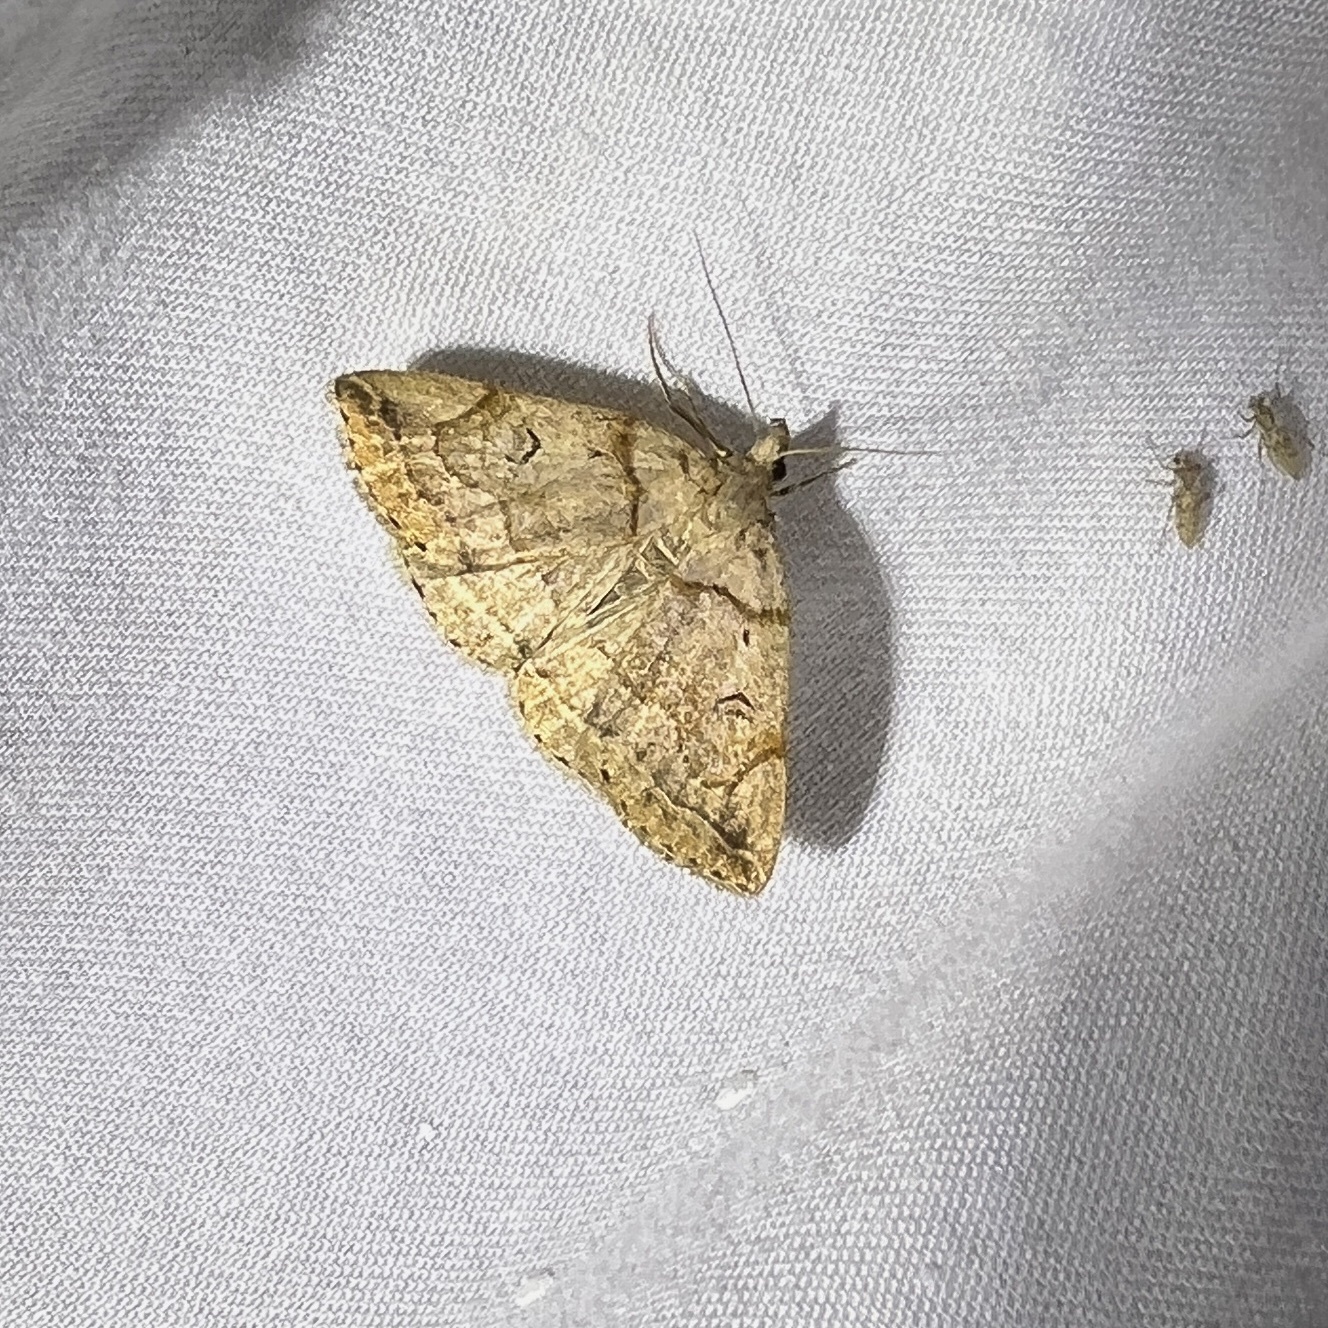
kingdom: Animalia
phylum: Arthropoda
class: Insecta
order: Lepidoptera
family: Erebidae
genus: Zanclognatha
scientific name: Zanclognatha laevigata
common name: Variable fan-foot
